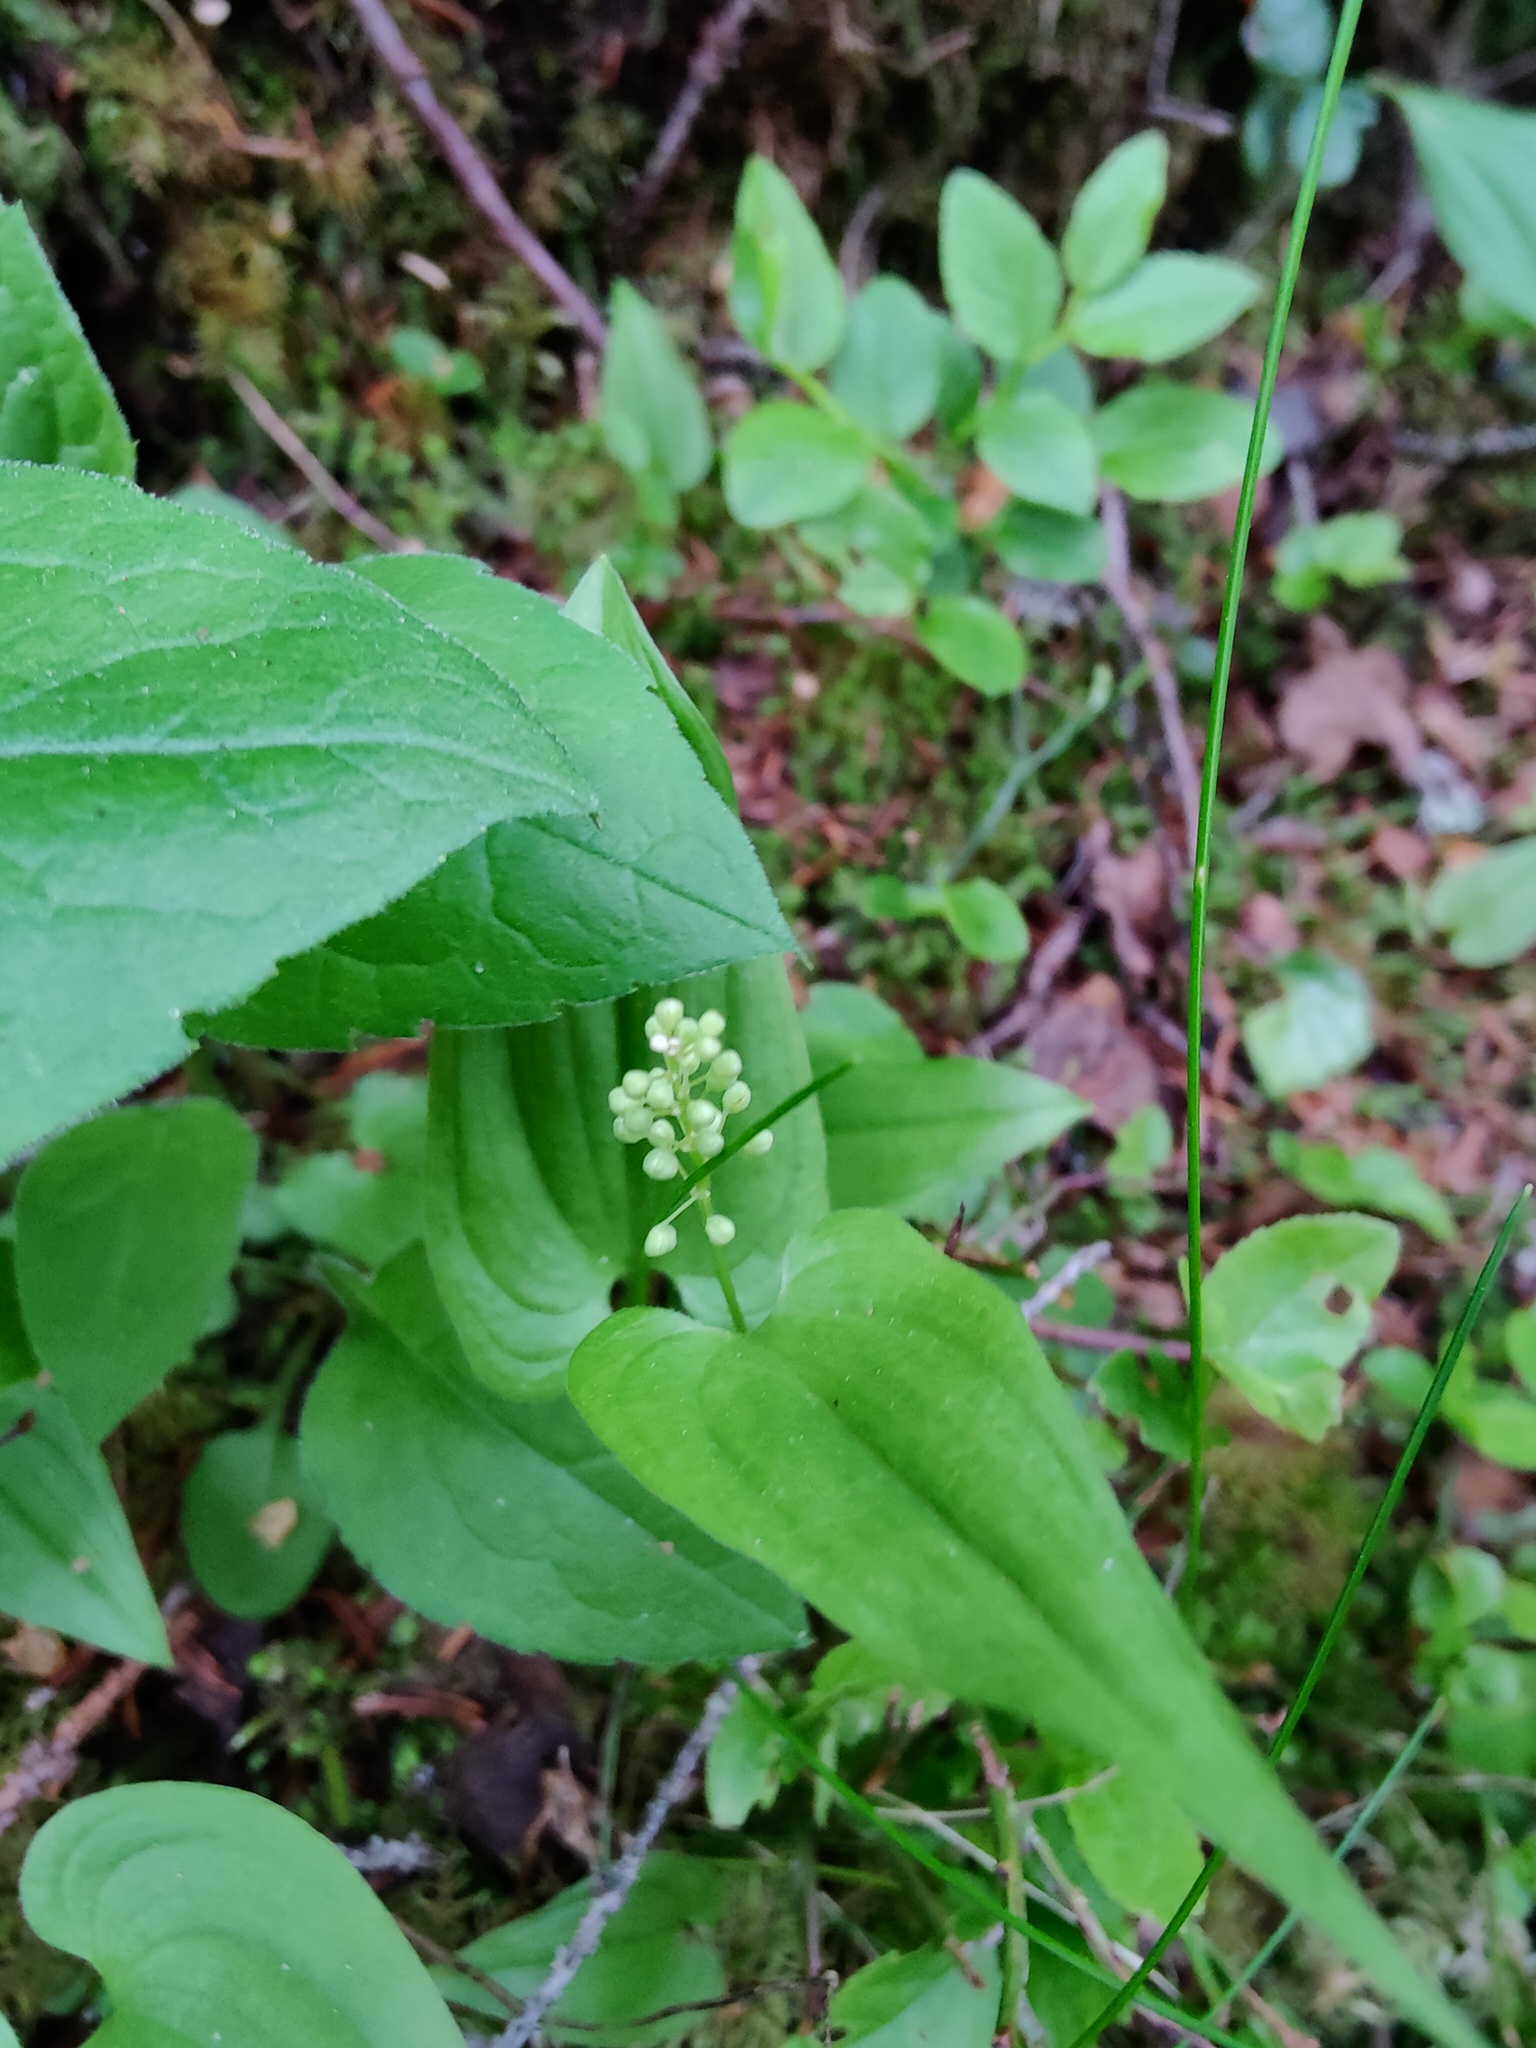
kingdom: Plantae
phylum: Tracheophyta
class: Liliopsida
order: Asparagales
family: Asparagaceae
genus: Maianthemum
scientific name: Maianthemum bifolium
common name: May lily
